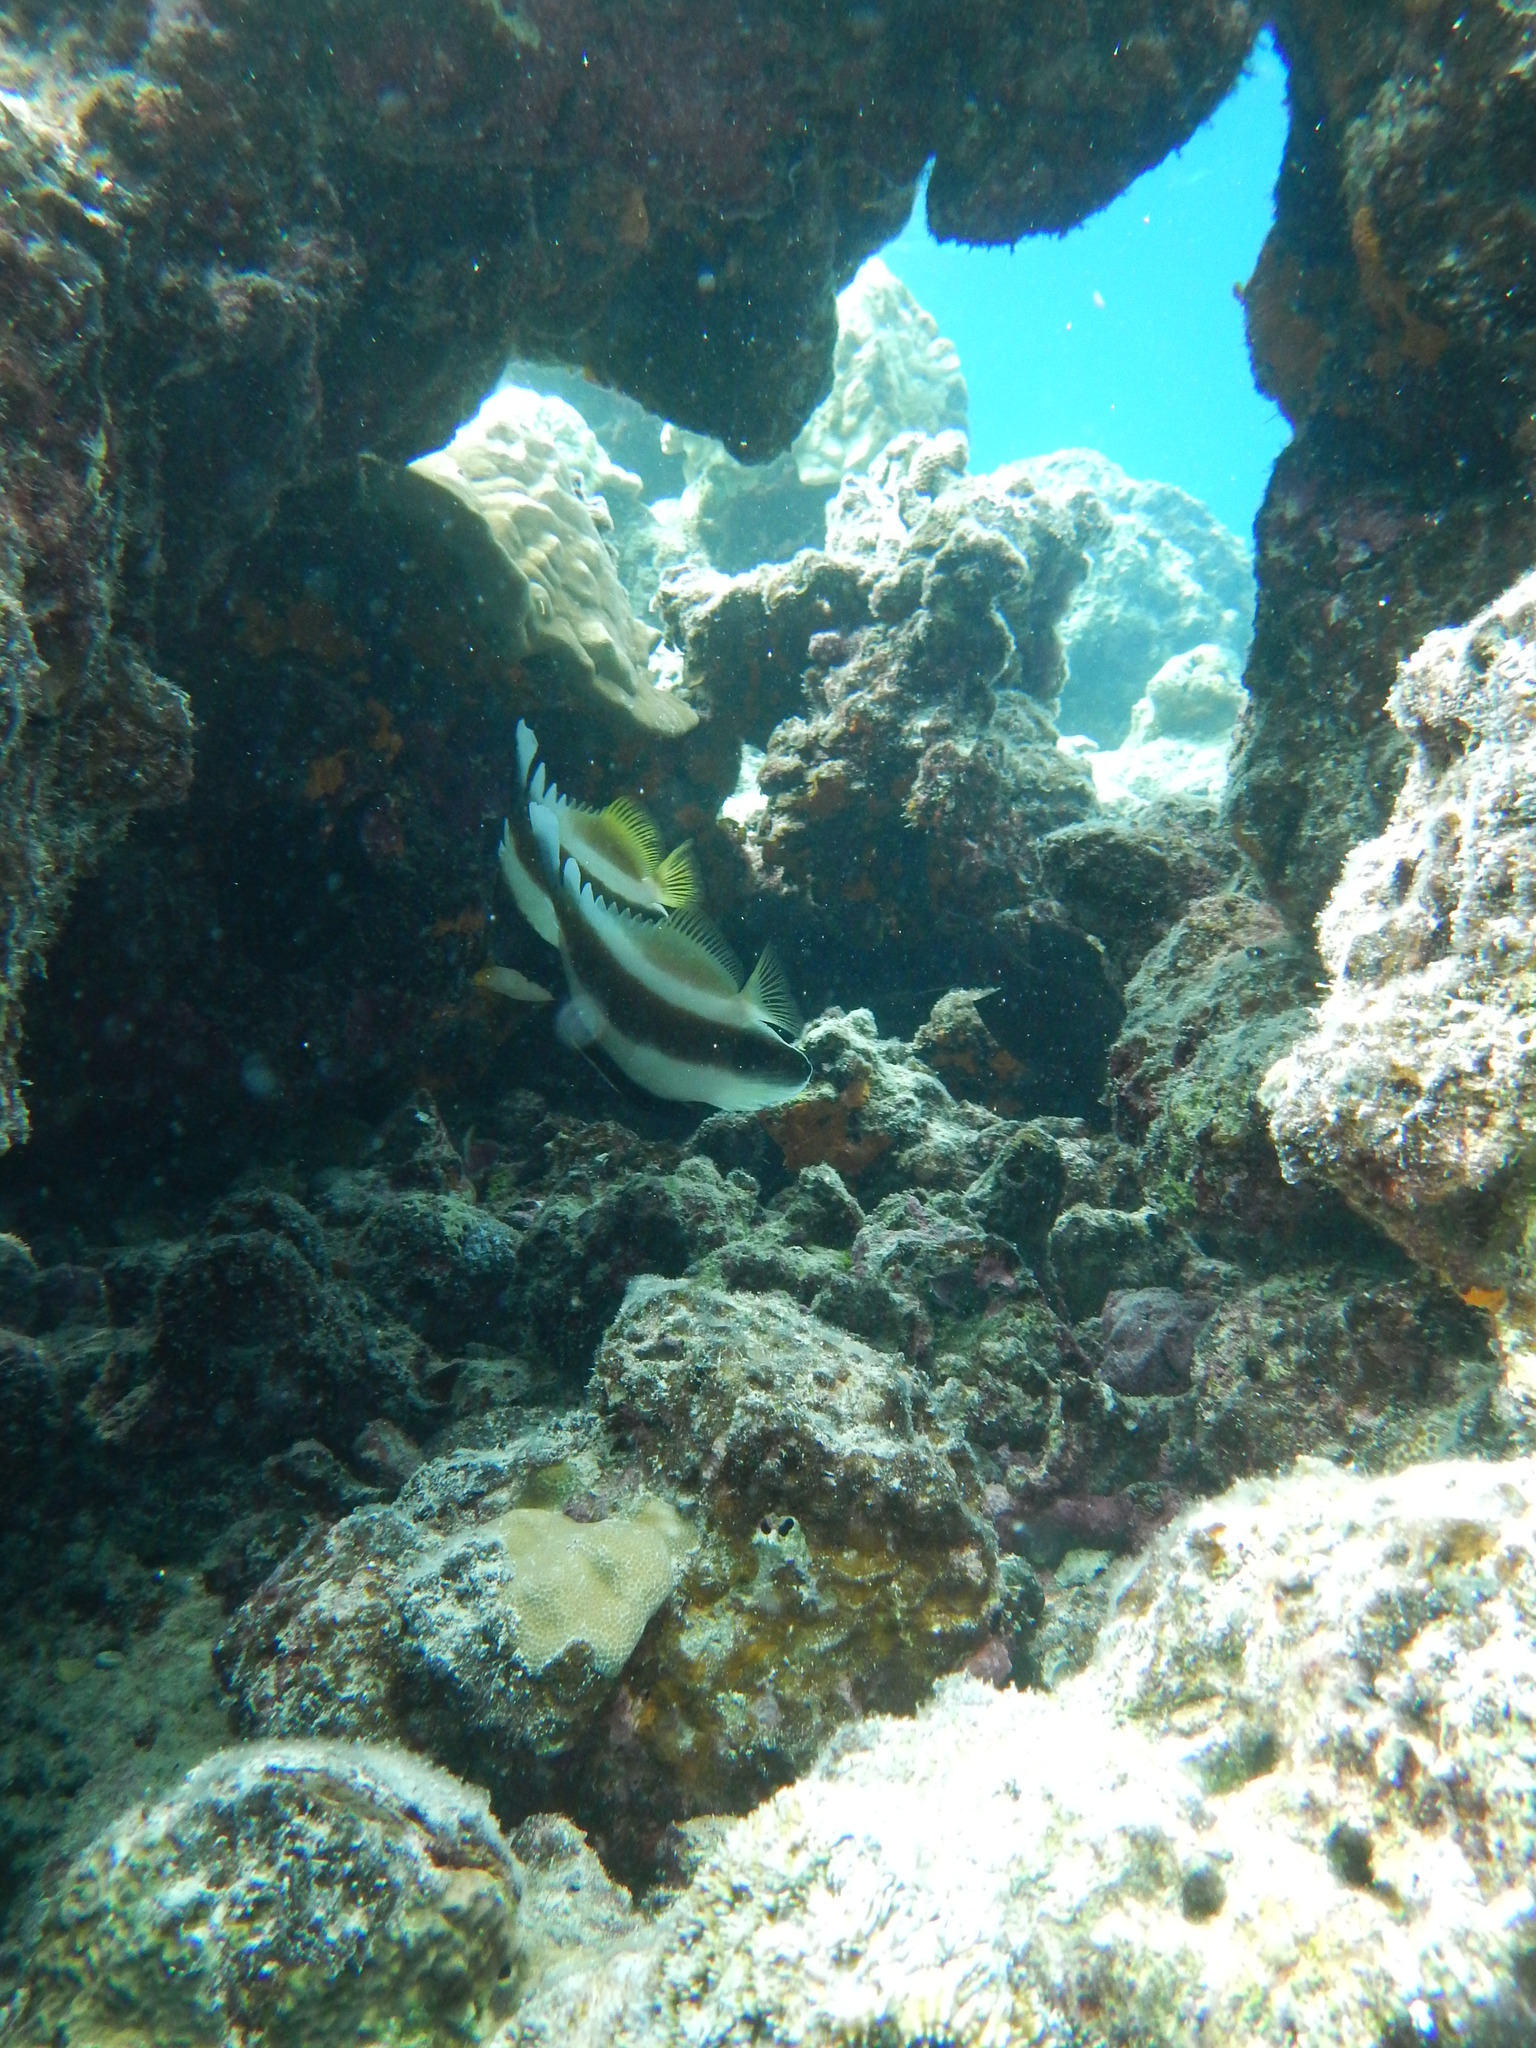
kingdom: Animalia
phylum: Chordata
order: Perciformes
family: Chaetodontidae
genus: Heniochus
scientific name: Heniochus chrysostomus
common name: Horned bannerfish
